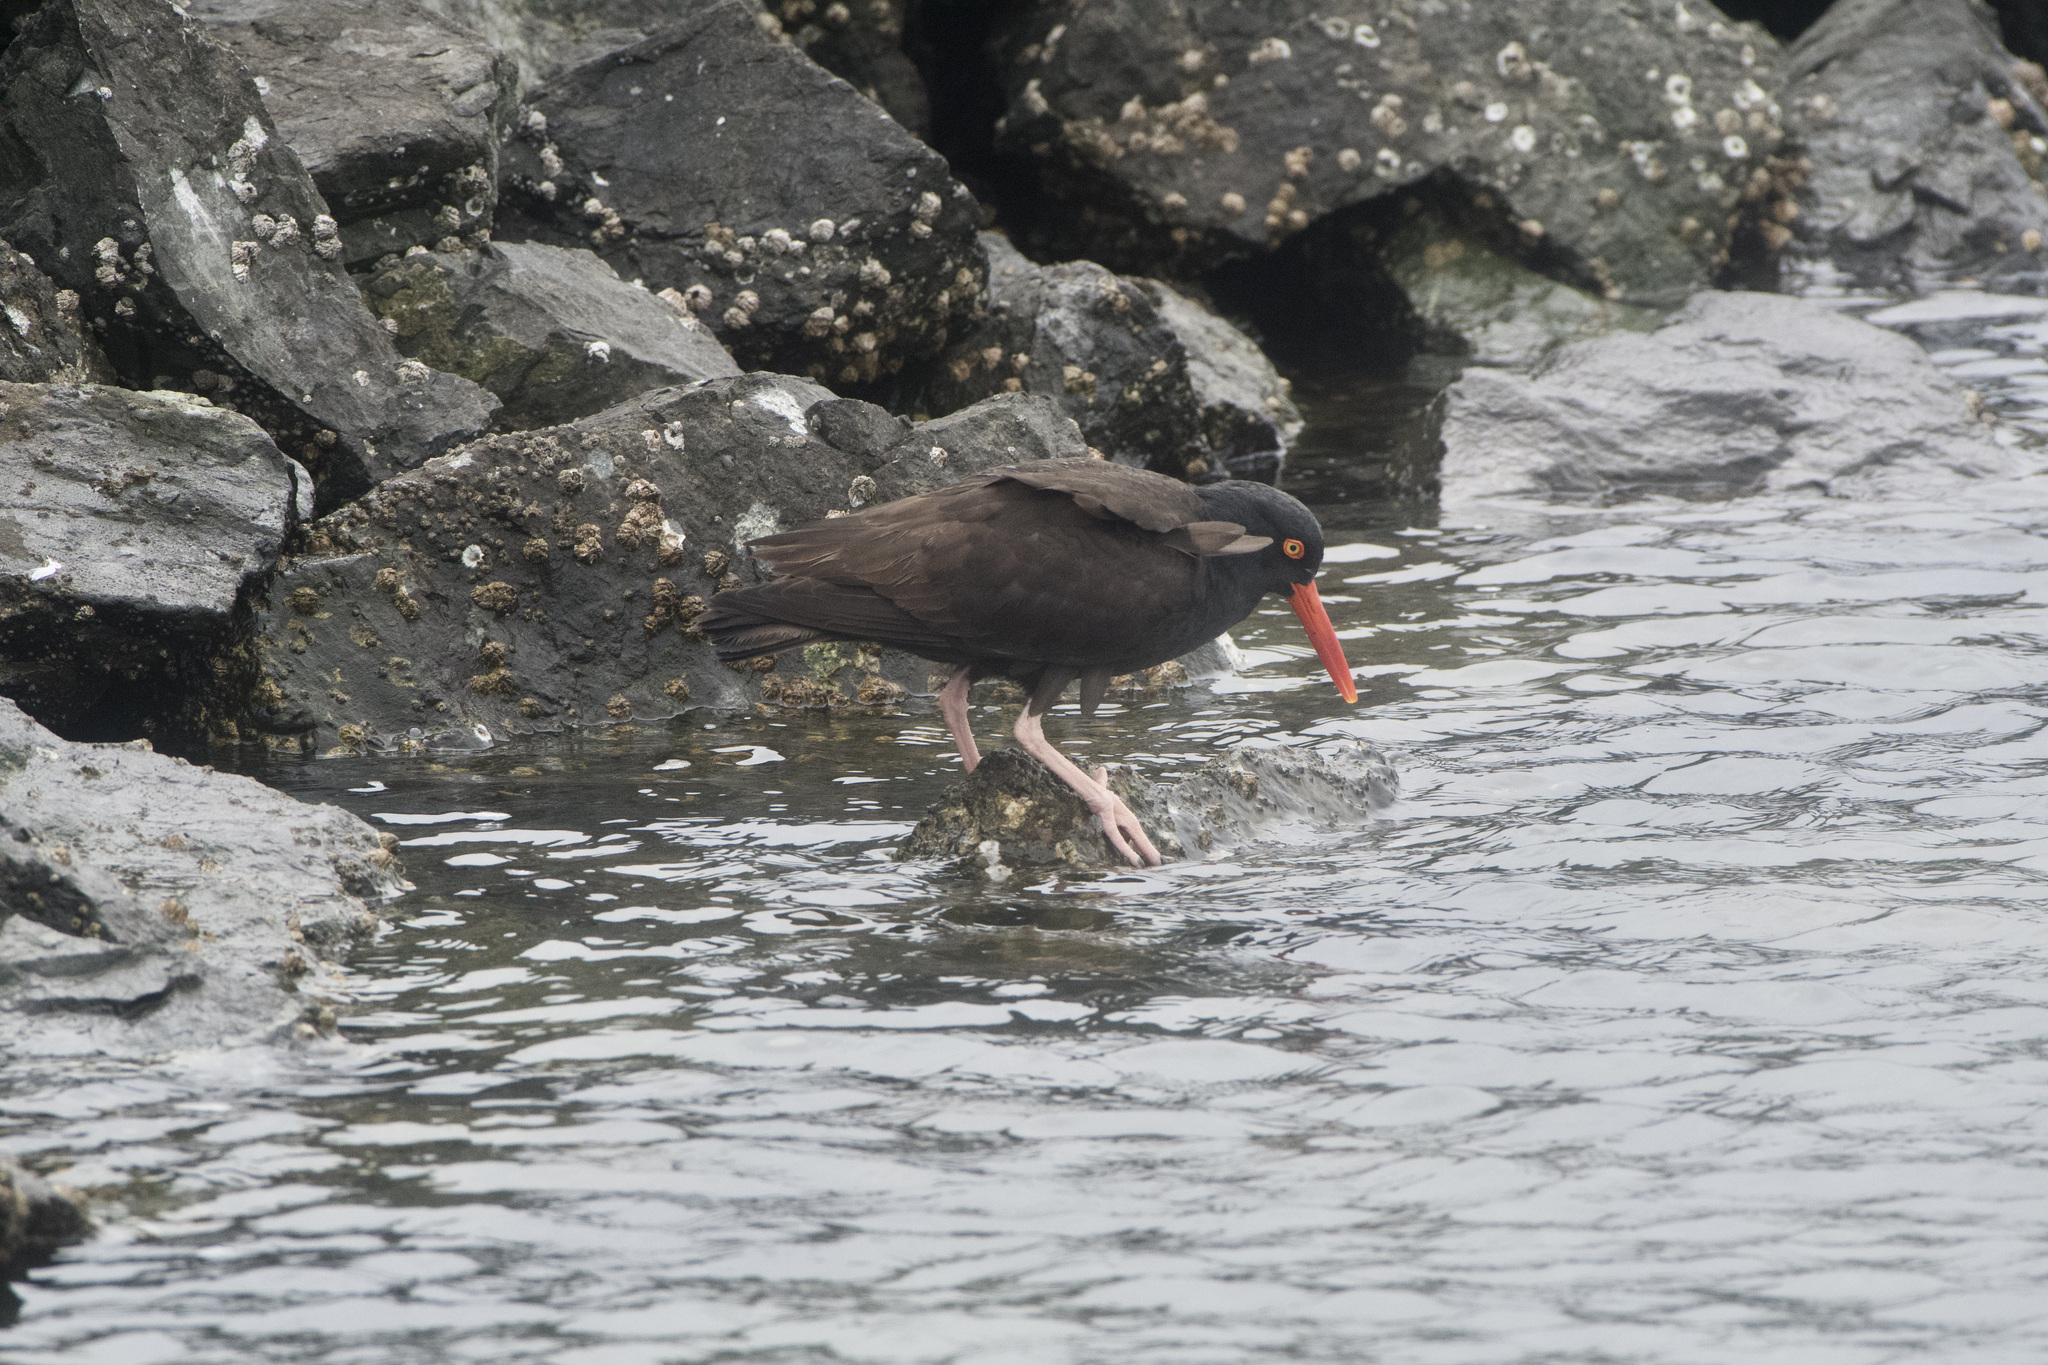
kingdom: Animalia
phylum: Chordata
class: Aves
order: Charadriiformes
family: Haematopodidae
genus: Haematopus
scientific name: Haematopus bachmani
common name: Black oystercatcher
